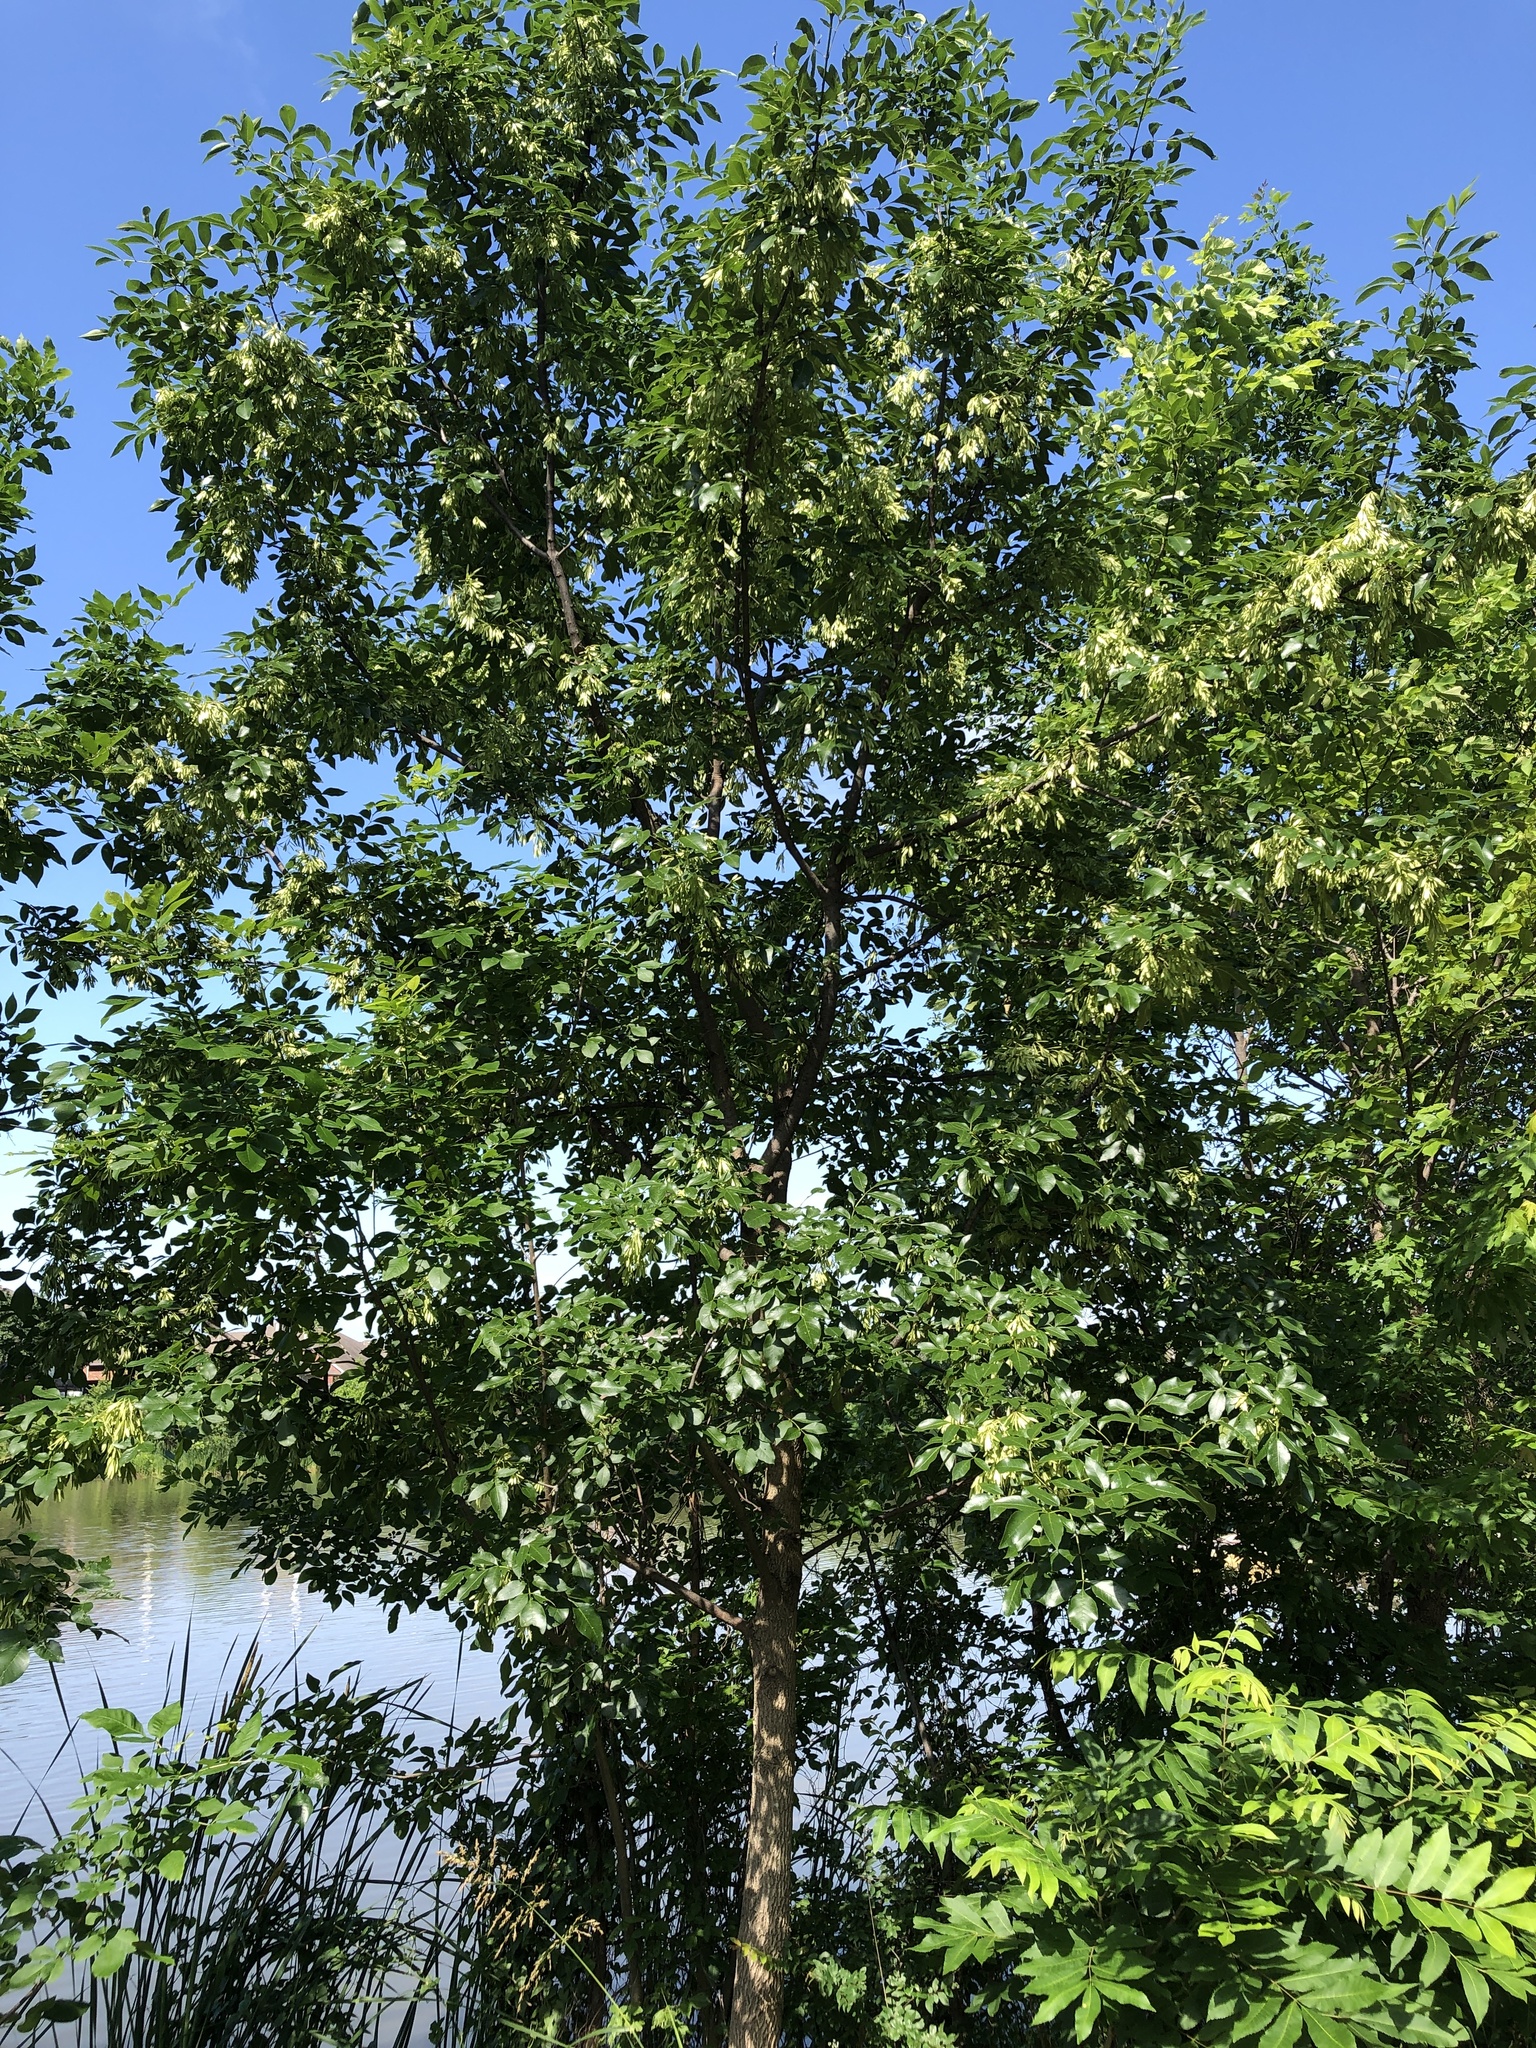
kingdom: Plantae
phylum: Tracheophyta
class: Magnoliopsida
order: Lamiales
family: Oleaceae
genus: Fraxinus
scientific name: Fraxinus pennsylvanica
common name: Green ash
